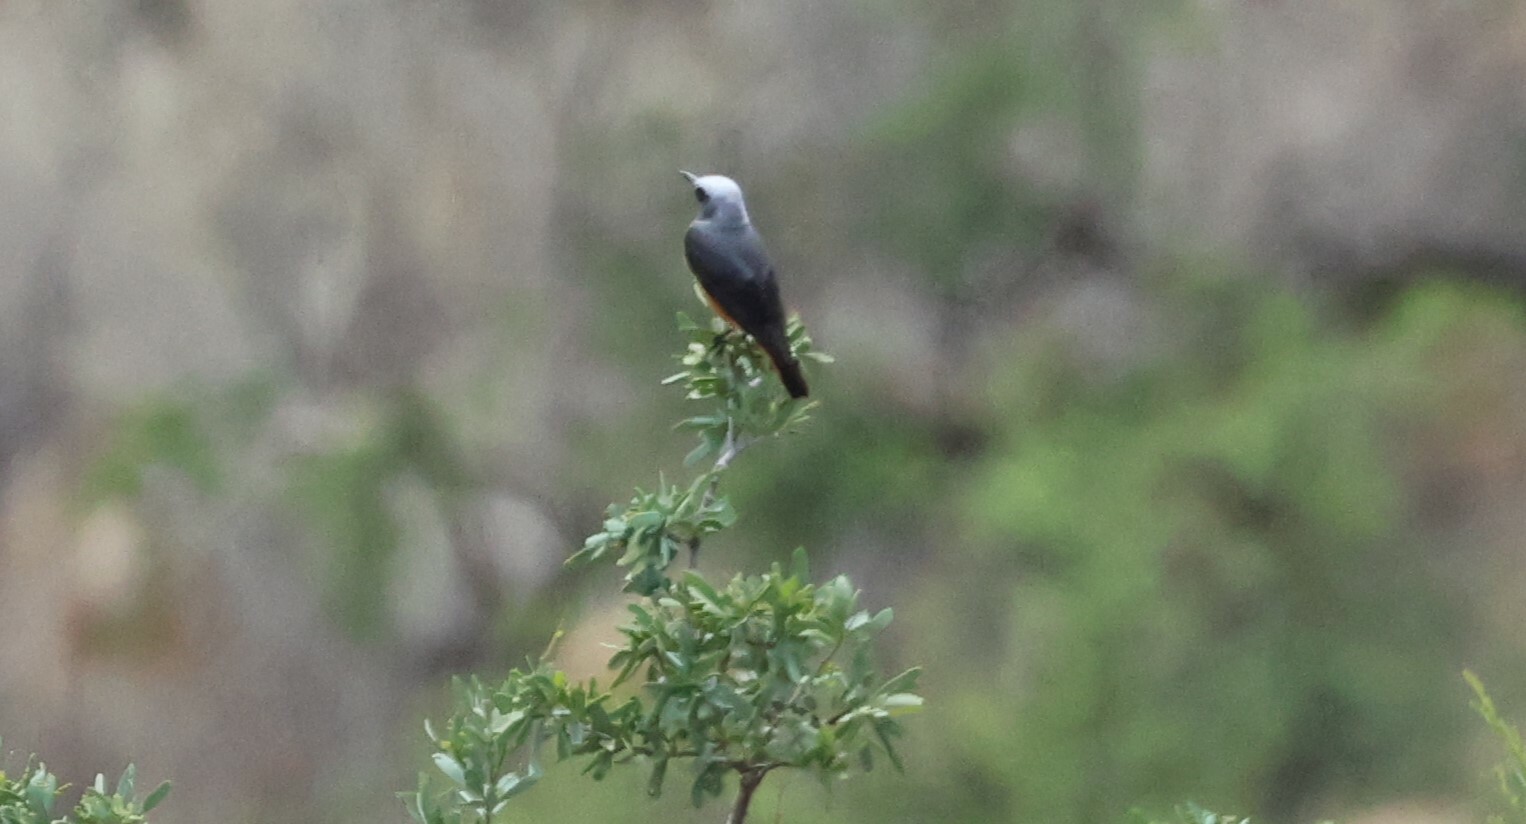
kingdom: Animalia
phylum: Chordata
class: Aves
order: Passeriformes
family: Muscicapidae
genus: Monticola
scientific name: Monticola brevipes
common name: Short-toed rock thrush
